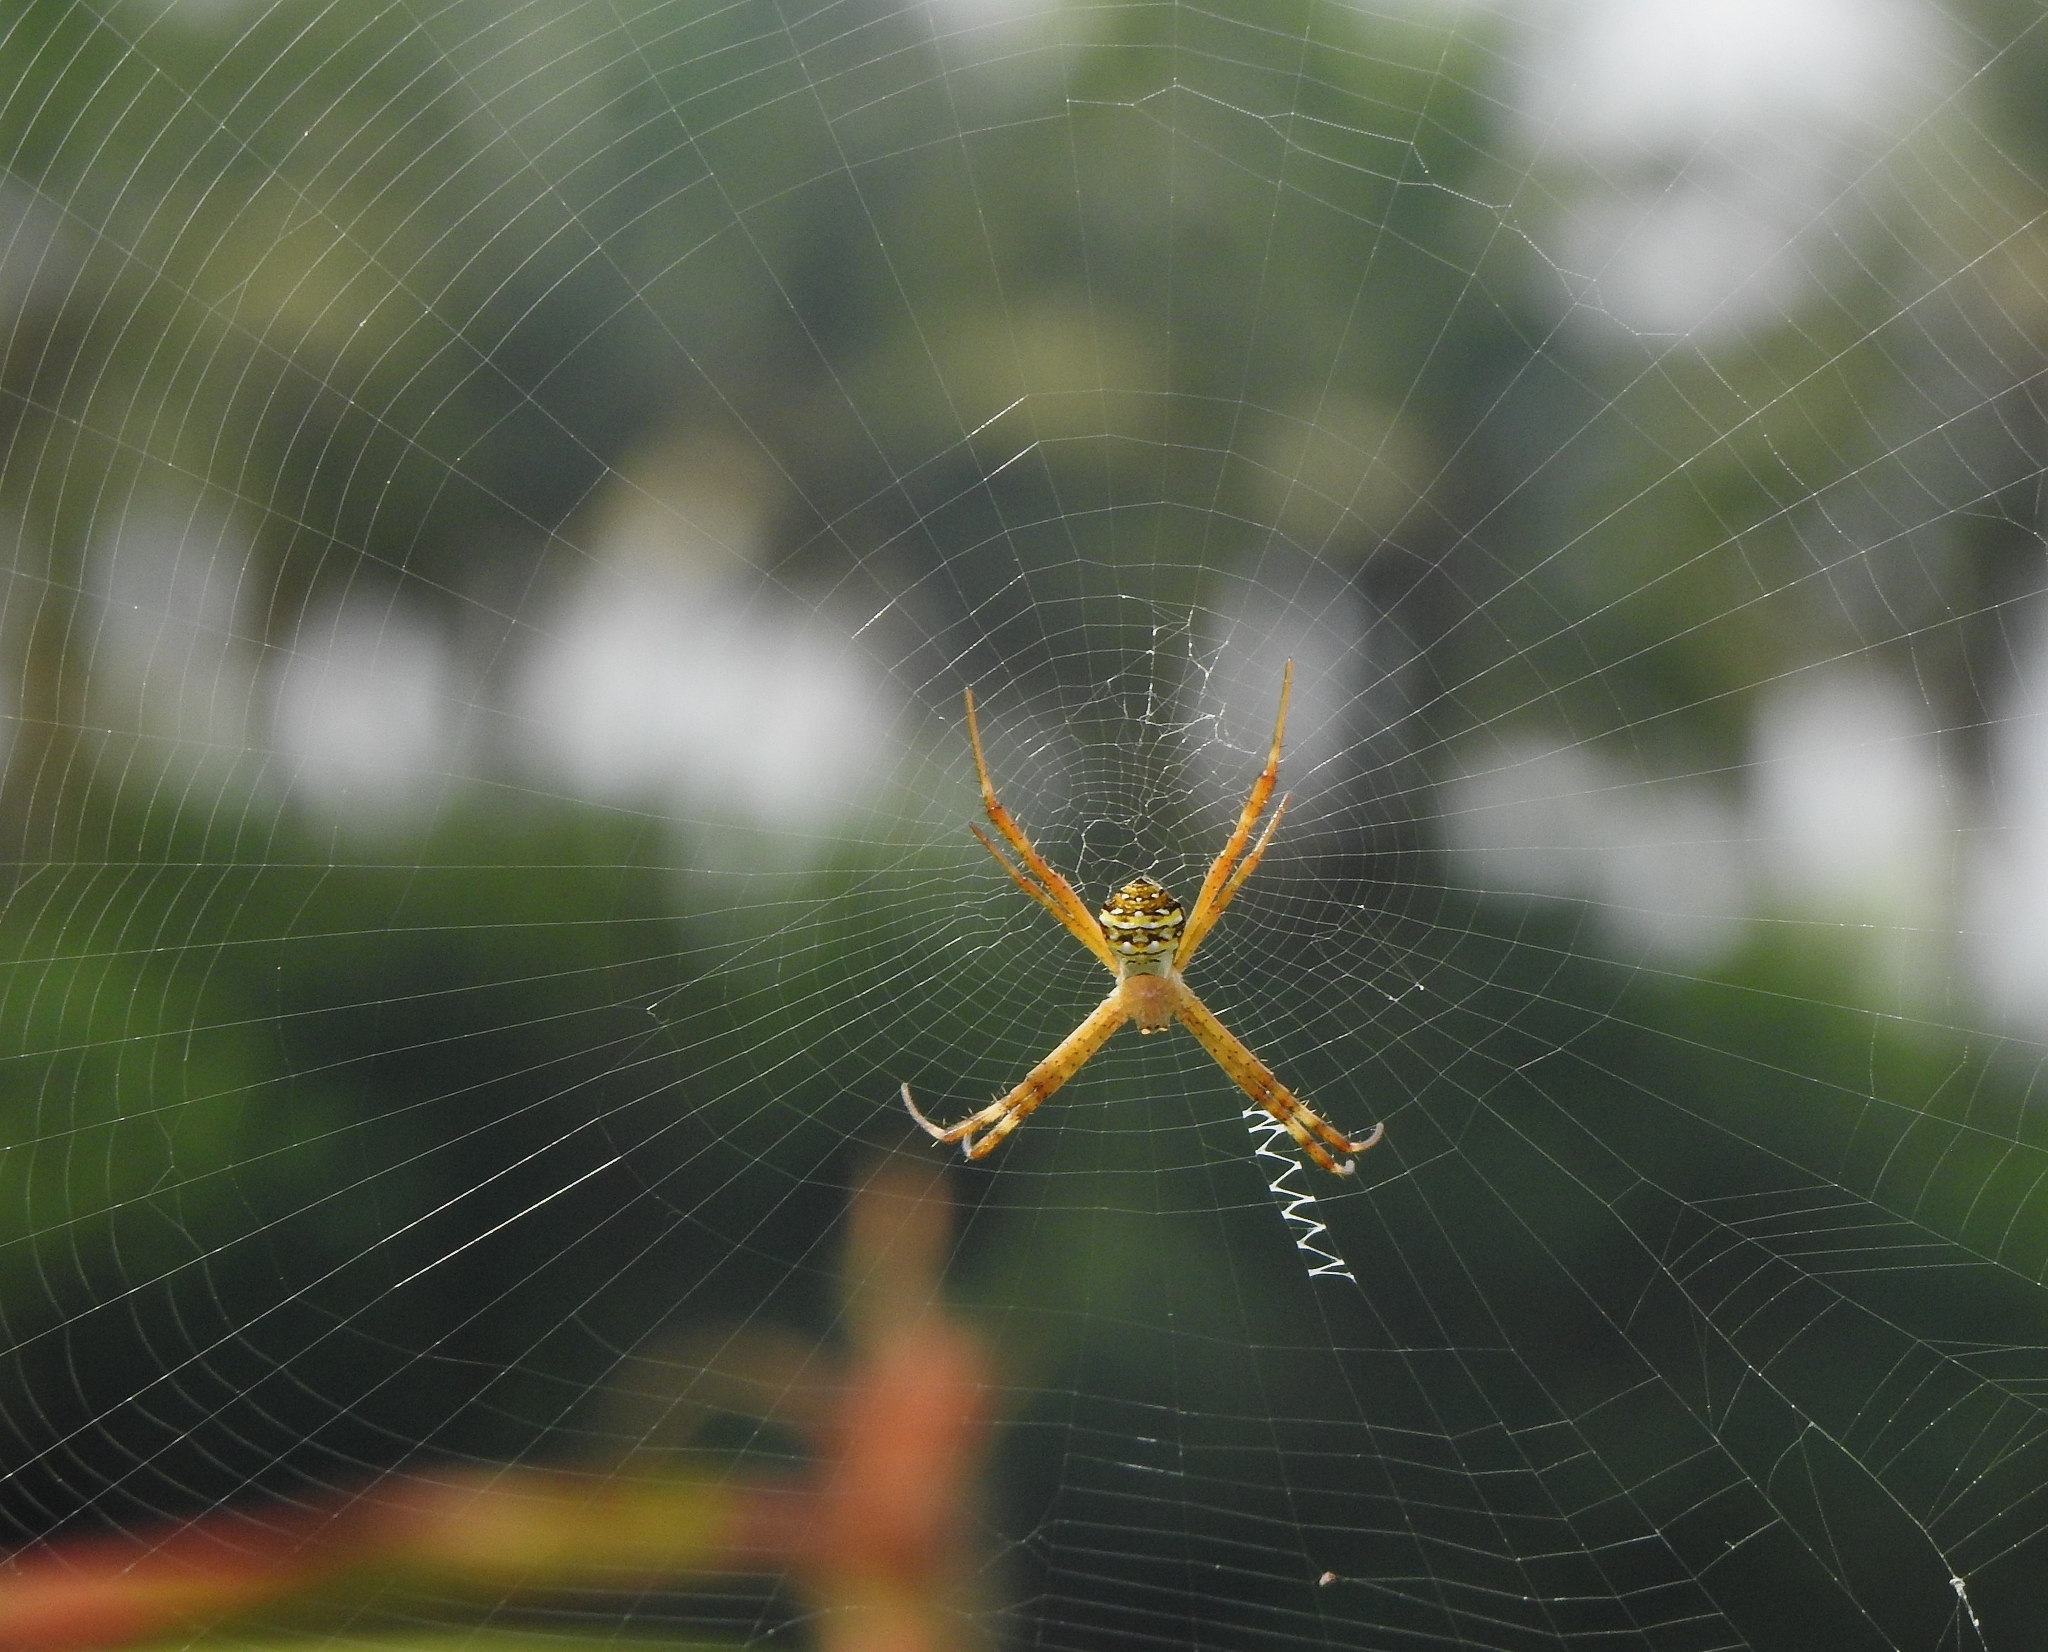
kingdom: Animalia
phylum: Arthropoda
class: Arachnida
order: Araneae
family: Araneidae
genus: Argiope
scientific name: Argiope anasuja
